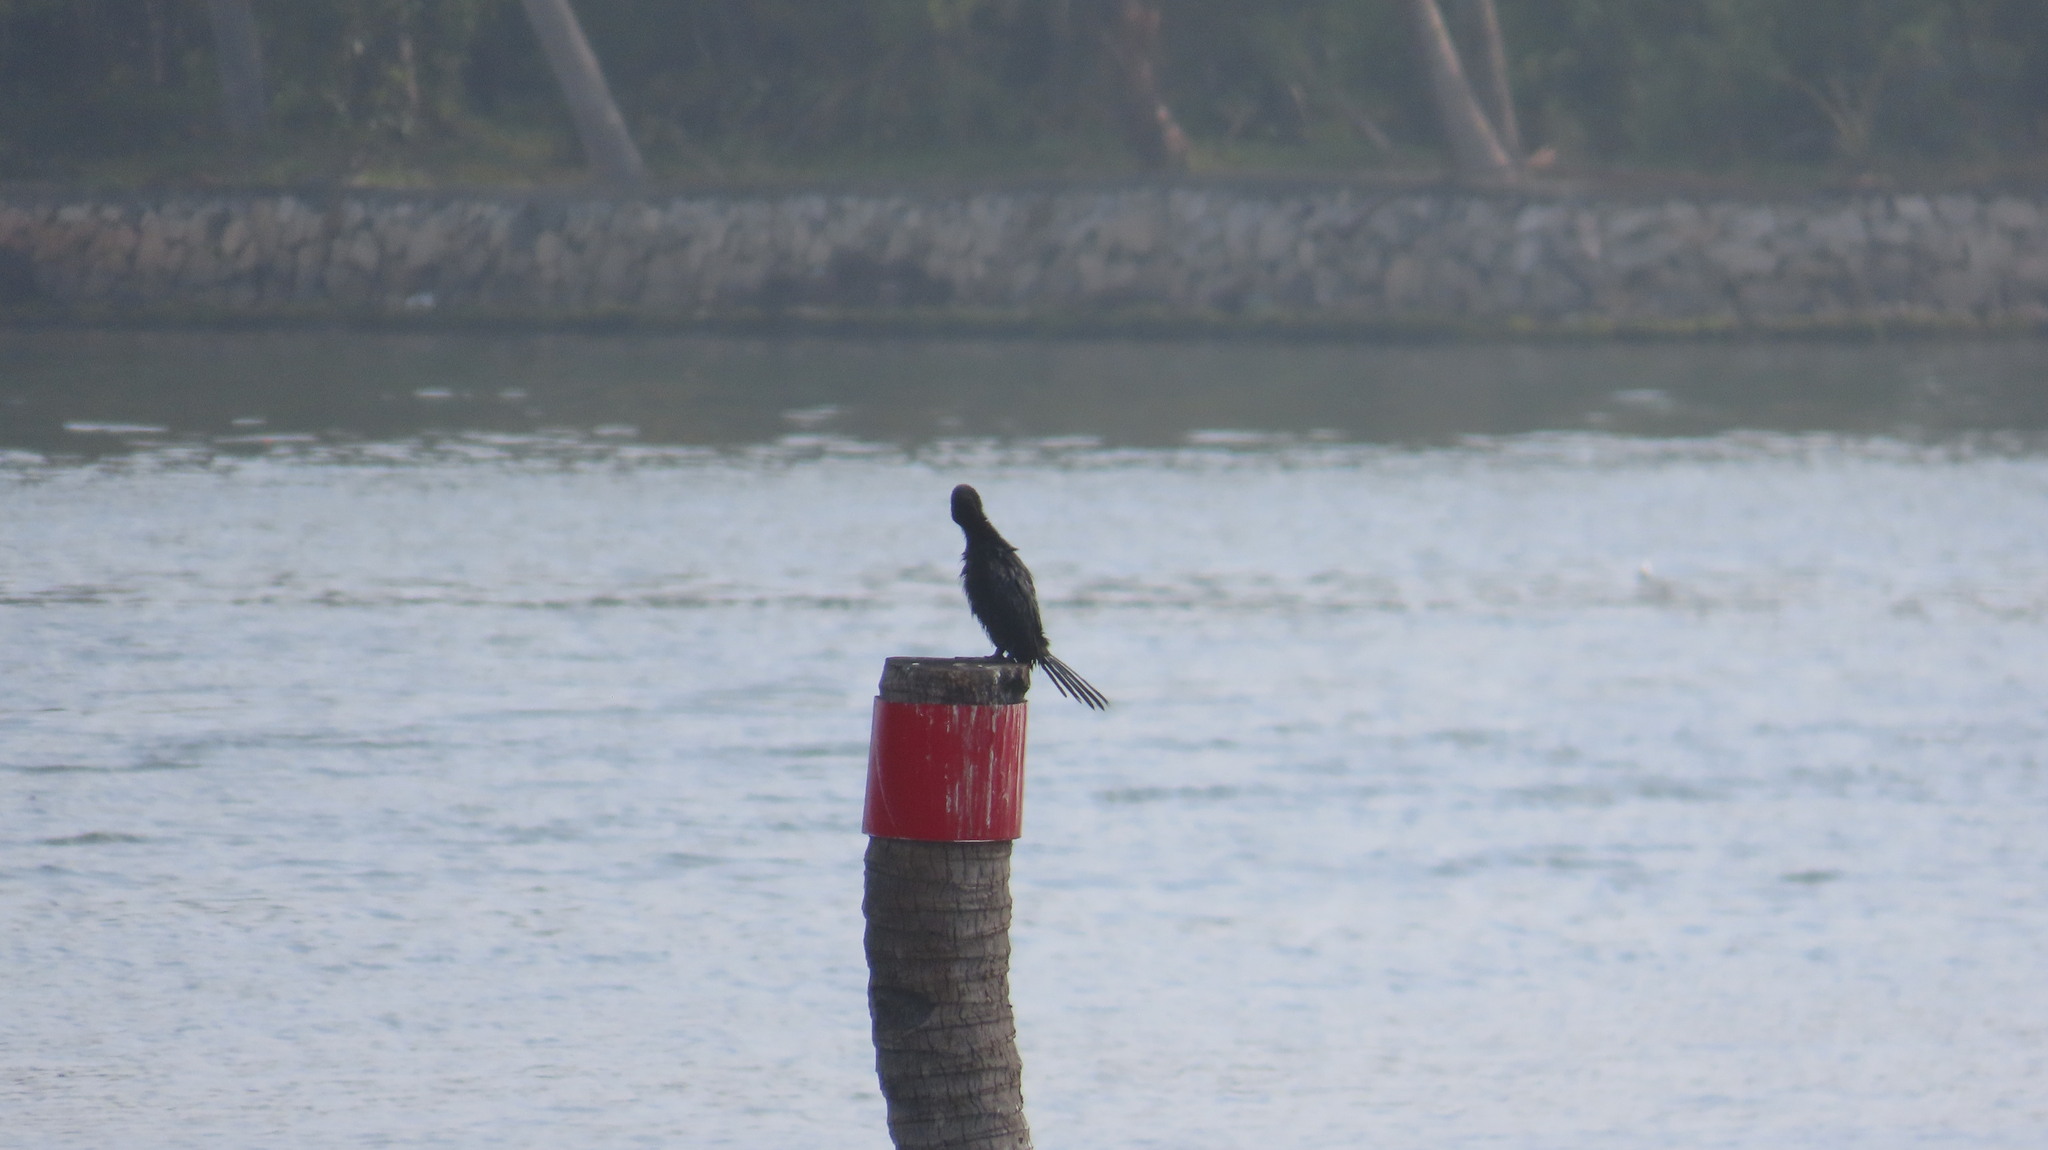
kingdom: Animalia
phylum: Chordata
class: Aves
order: Suliformes
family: Phalacrocoracidae
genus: Microcarbo
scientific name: Microcarbo niger
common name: Little cormorant
